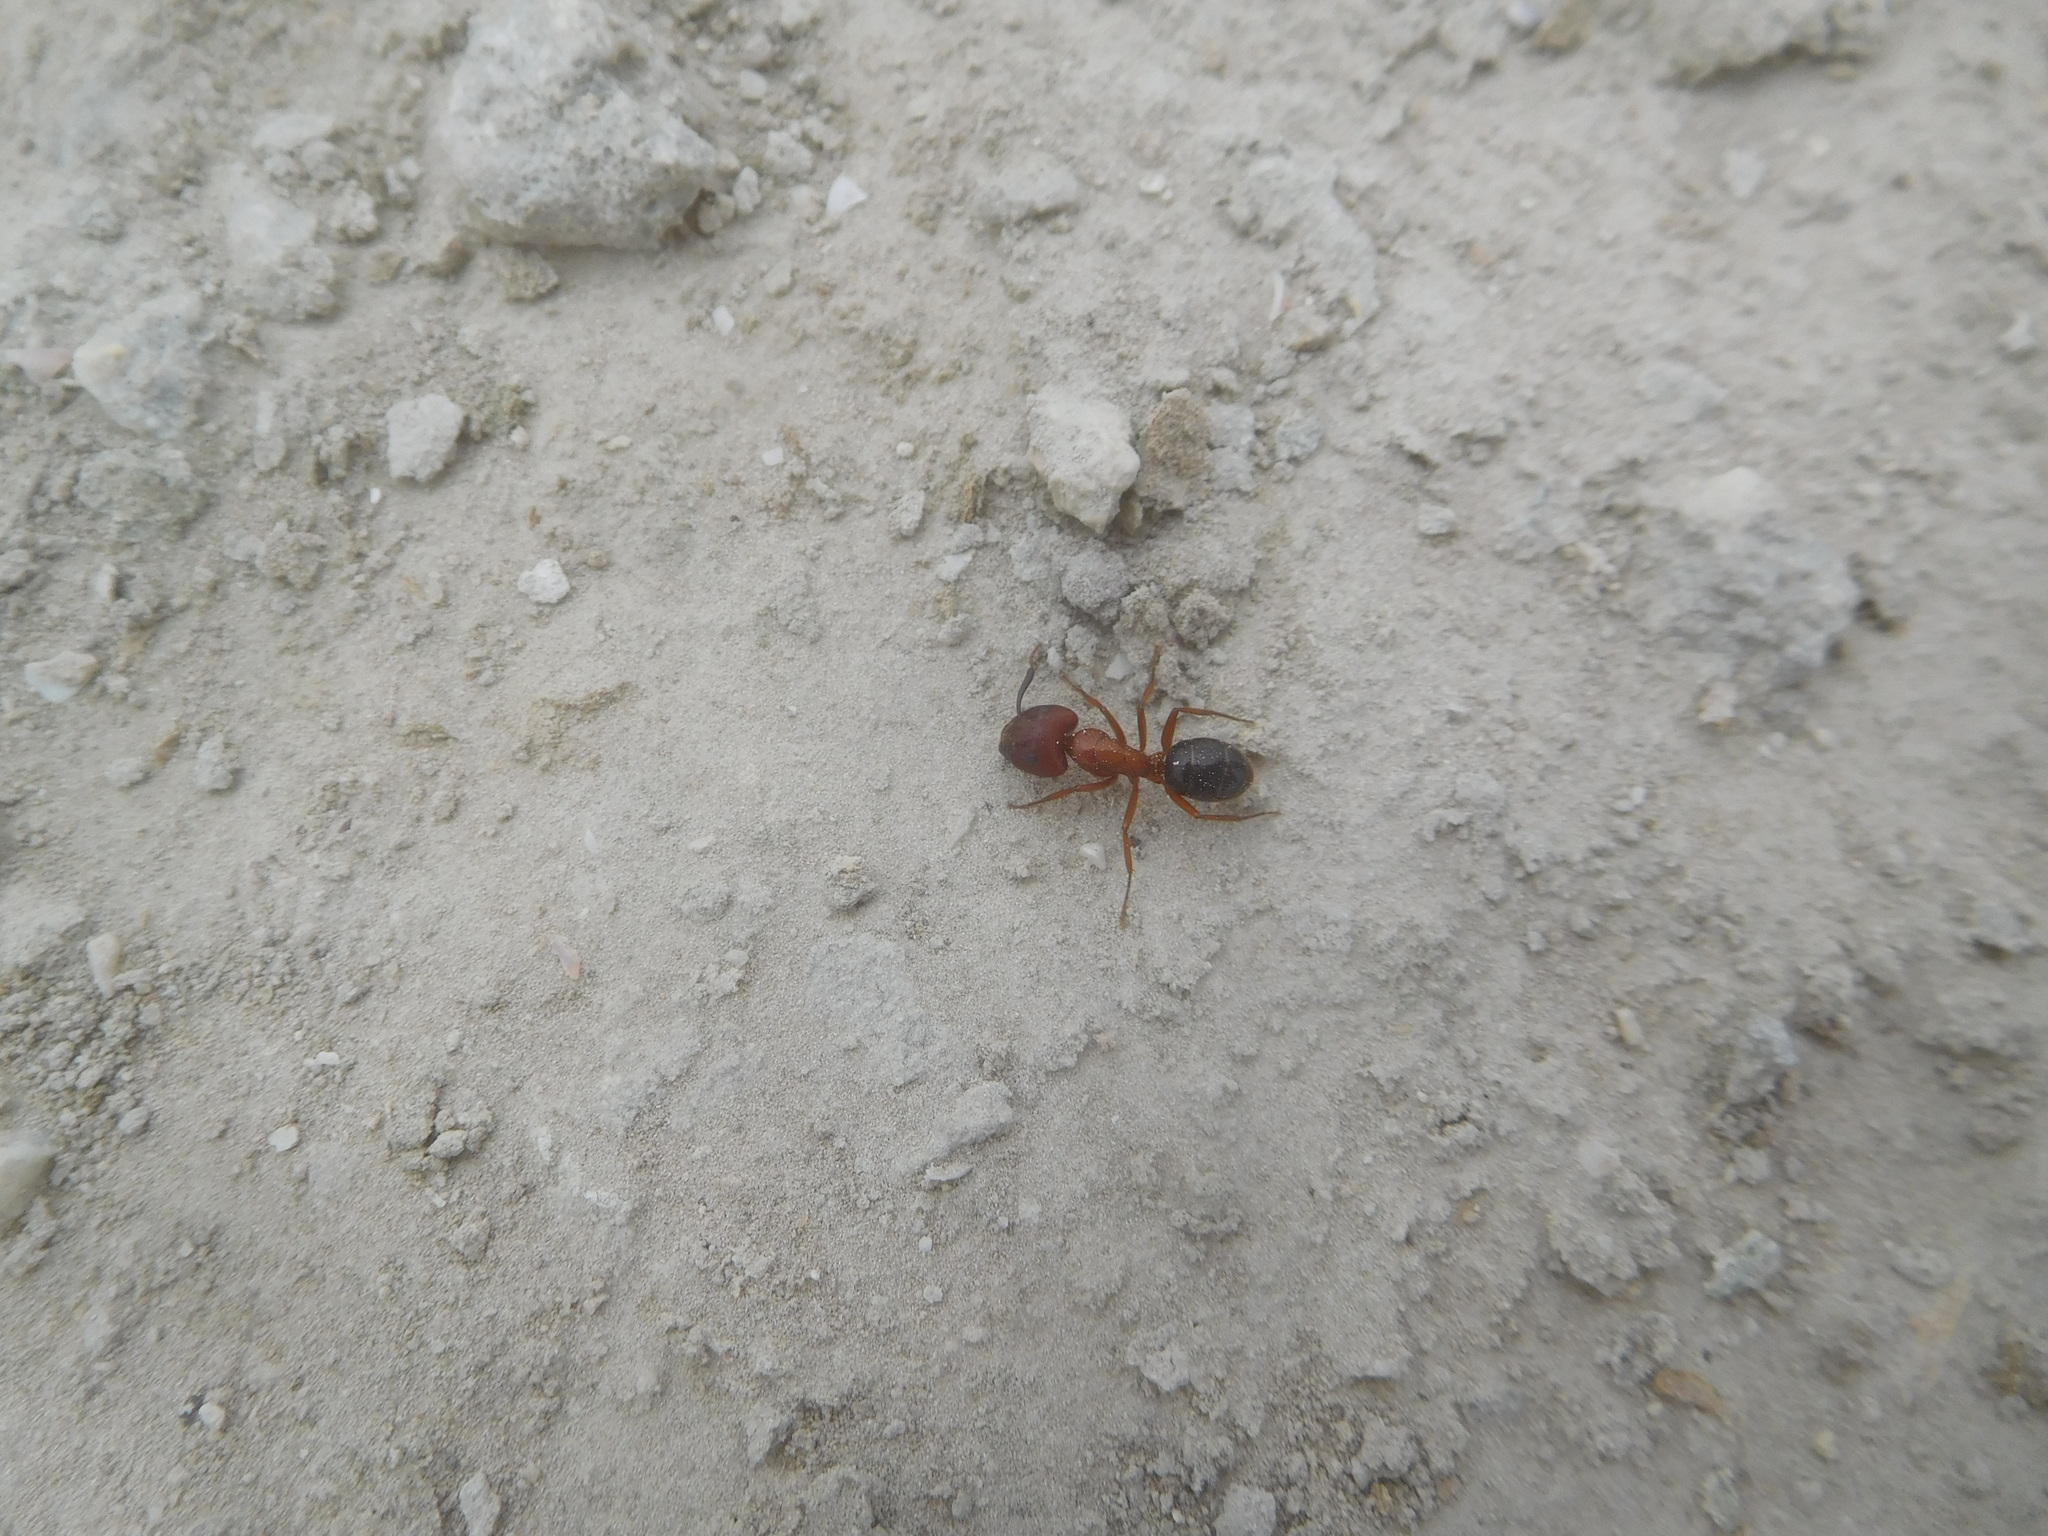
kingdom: Animalia
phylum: Arthropoda
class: Insecta
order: Hymenoptera
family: Formicidae
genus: Camponotus
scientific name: Camponotus floridanus
